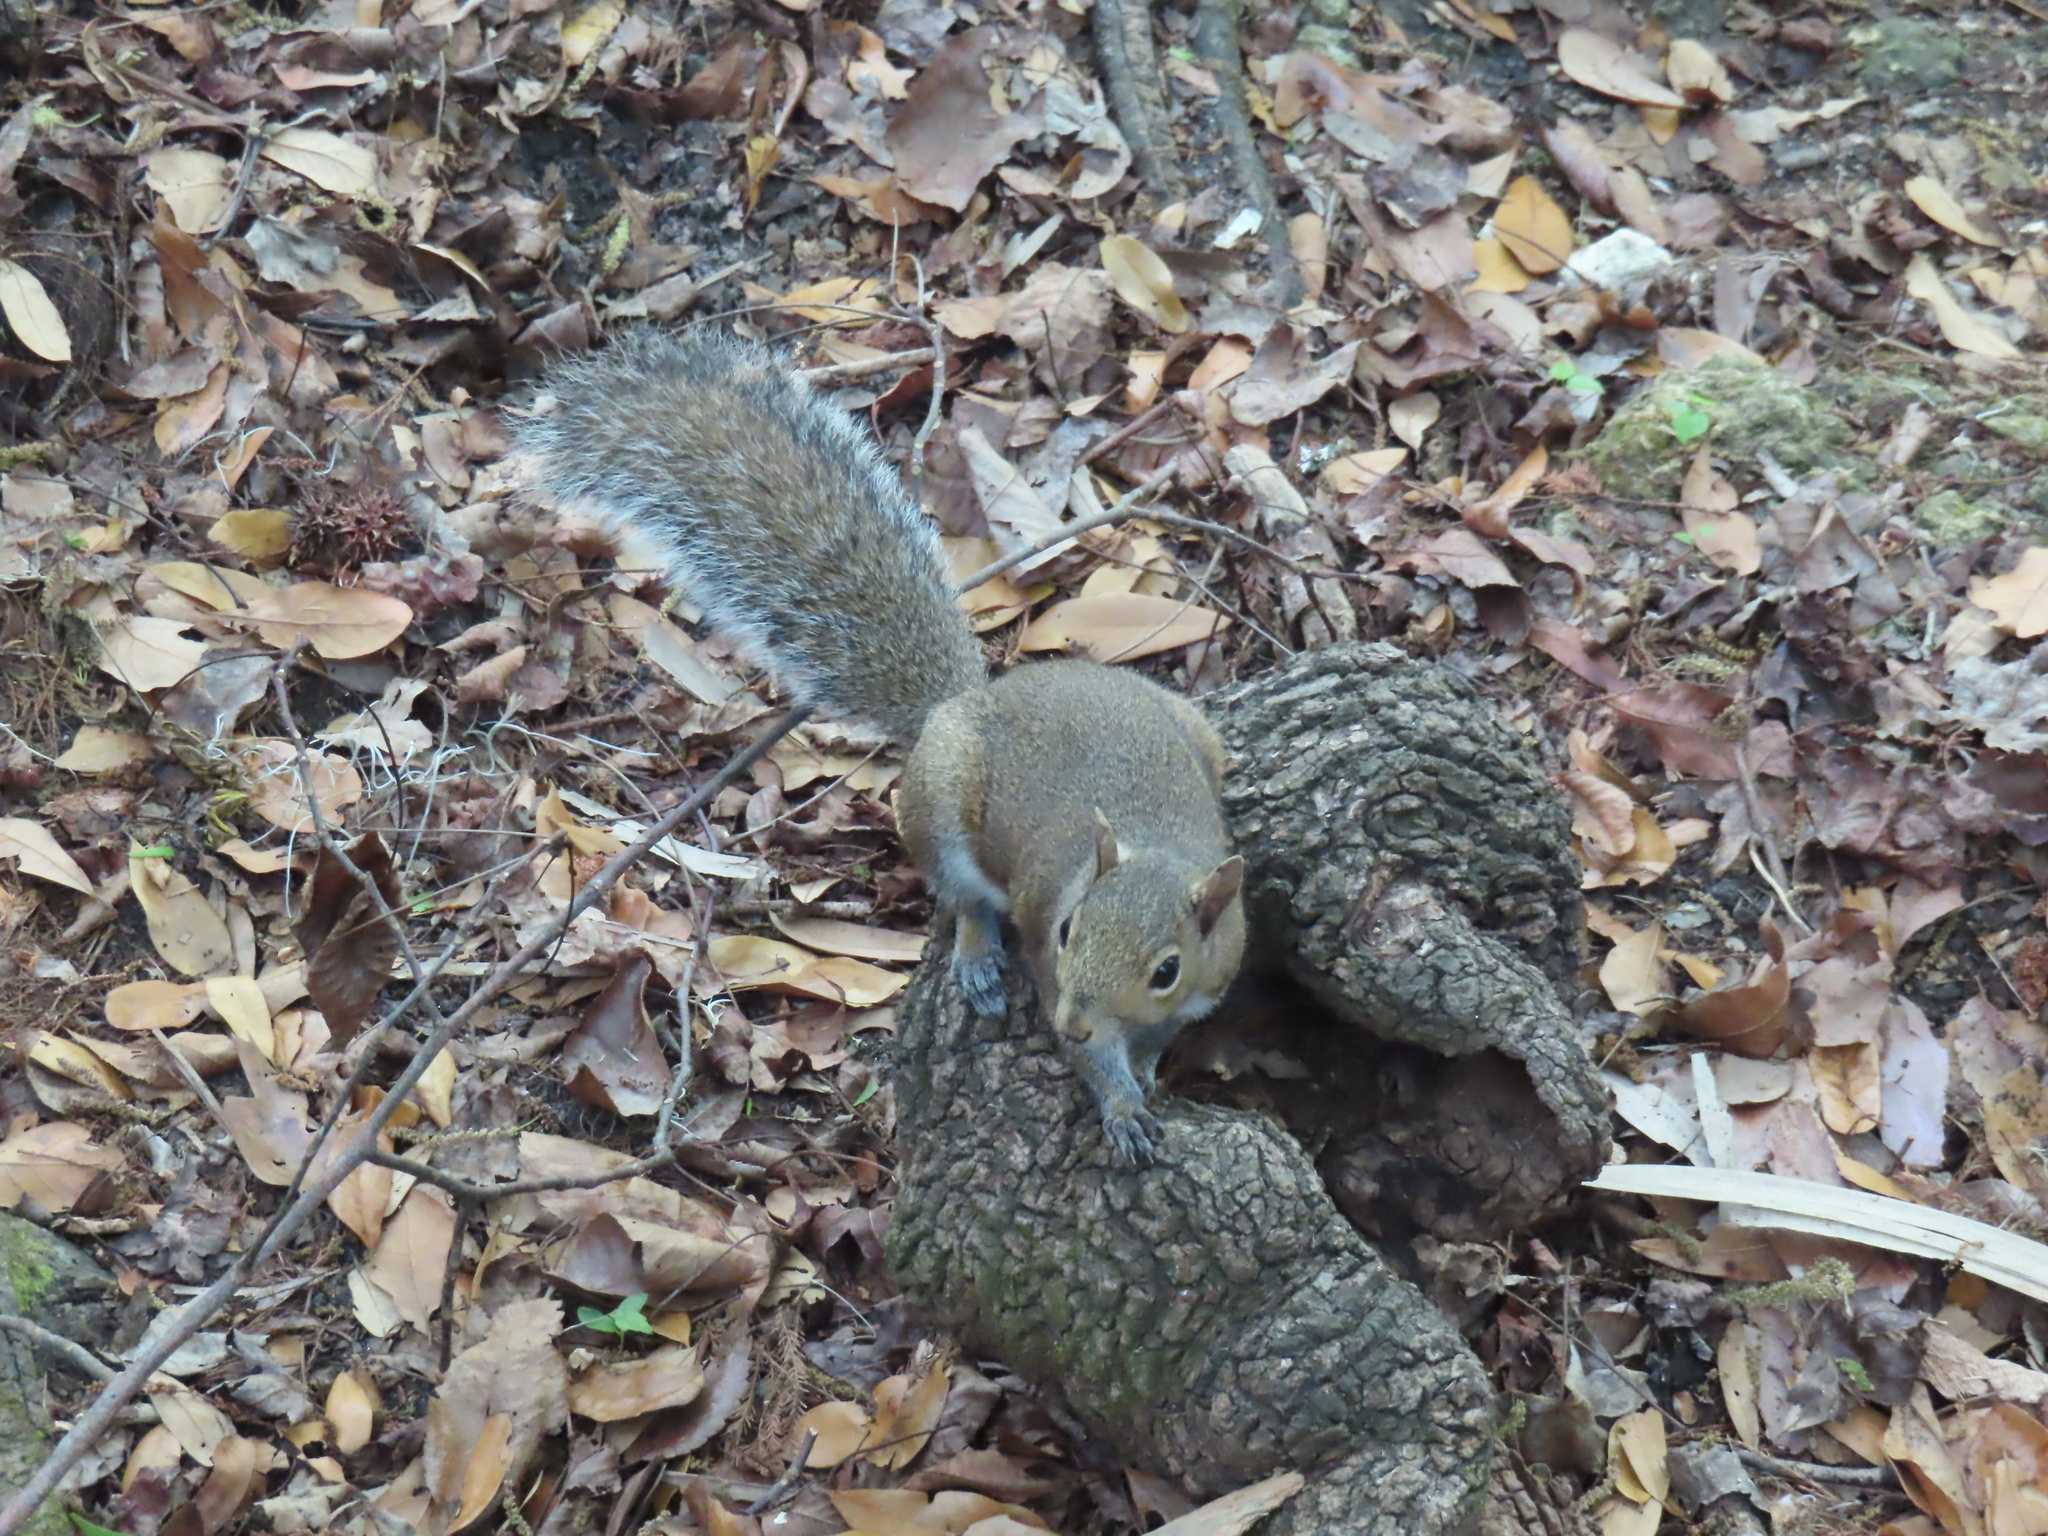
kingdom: Animalia
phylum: Chordata
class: Mammalia
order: Rodentia
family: Sciuridae
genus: Sciurus
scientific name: Sciurus carolinensis
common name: Eastern gray squirrel
